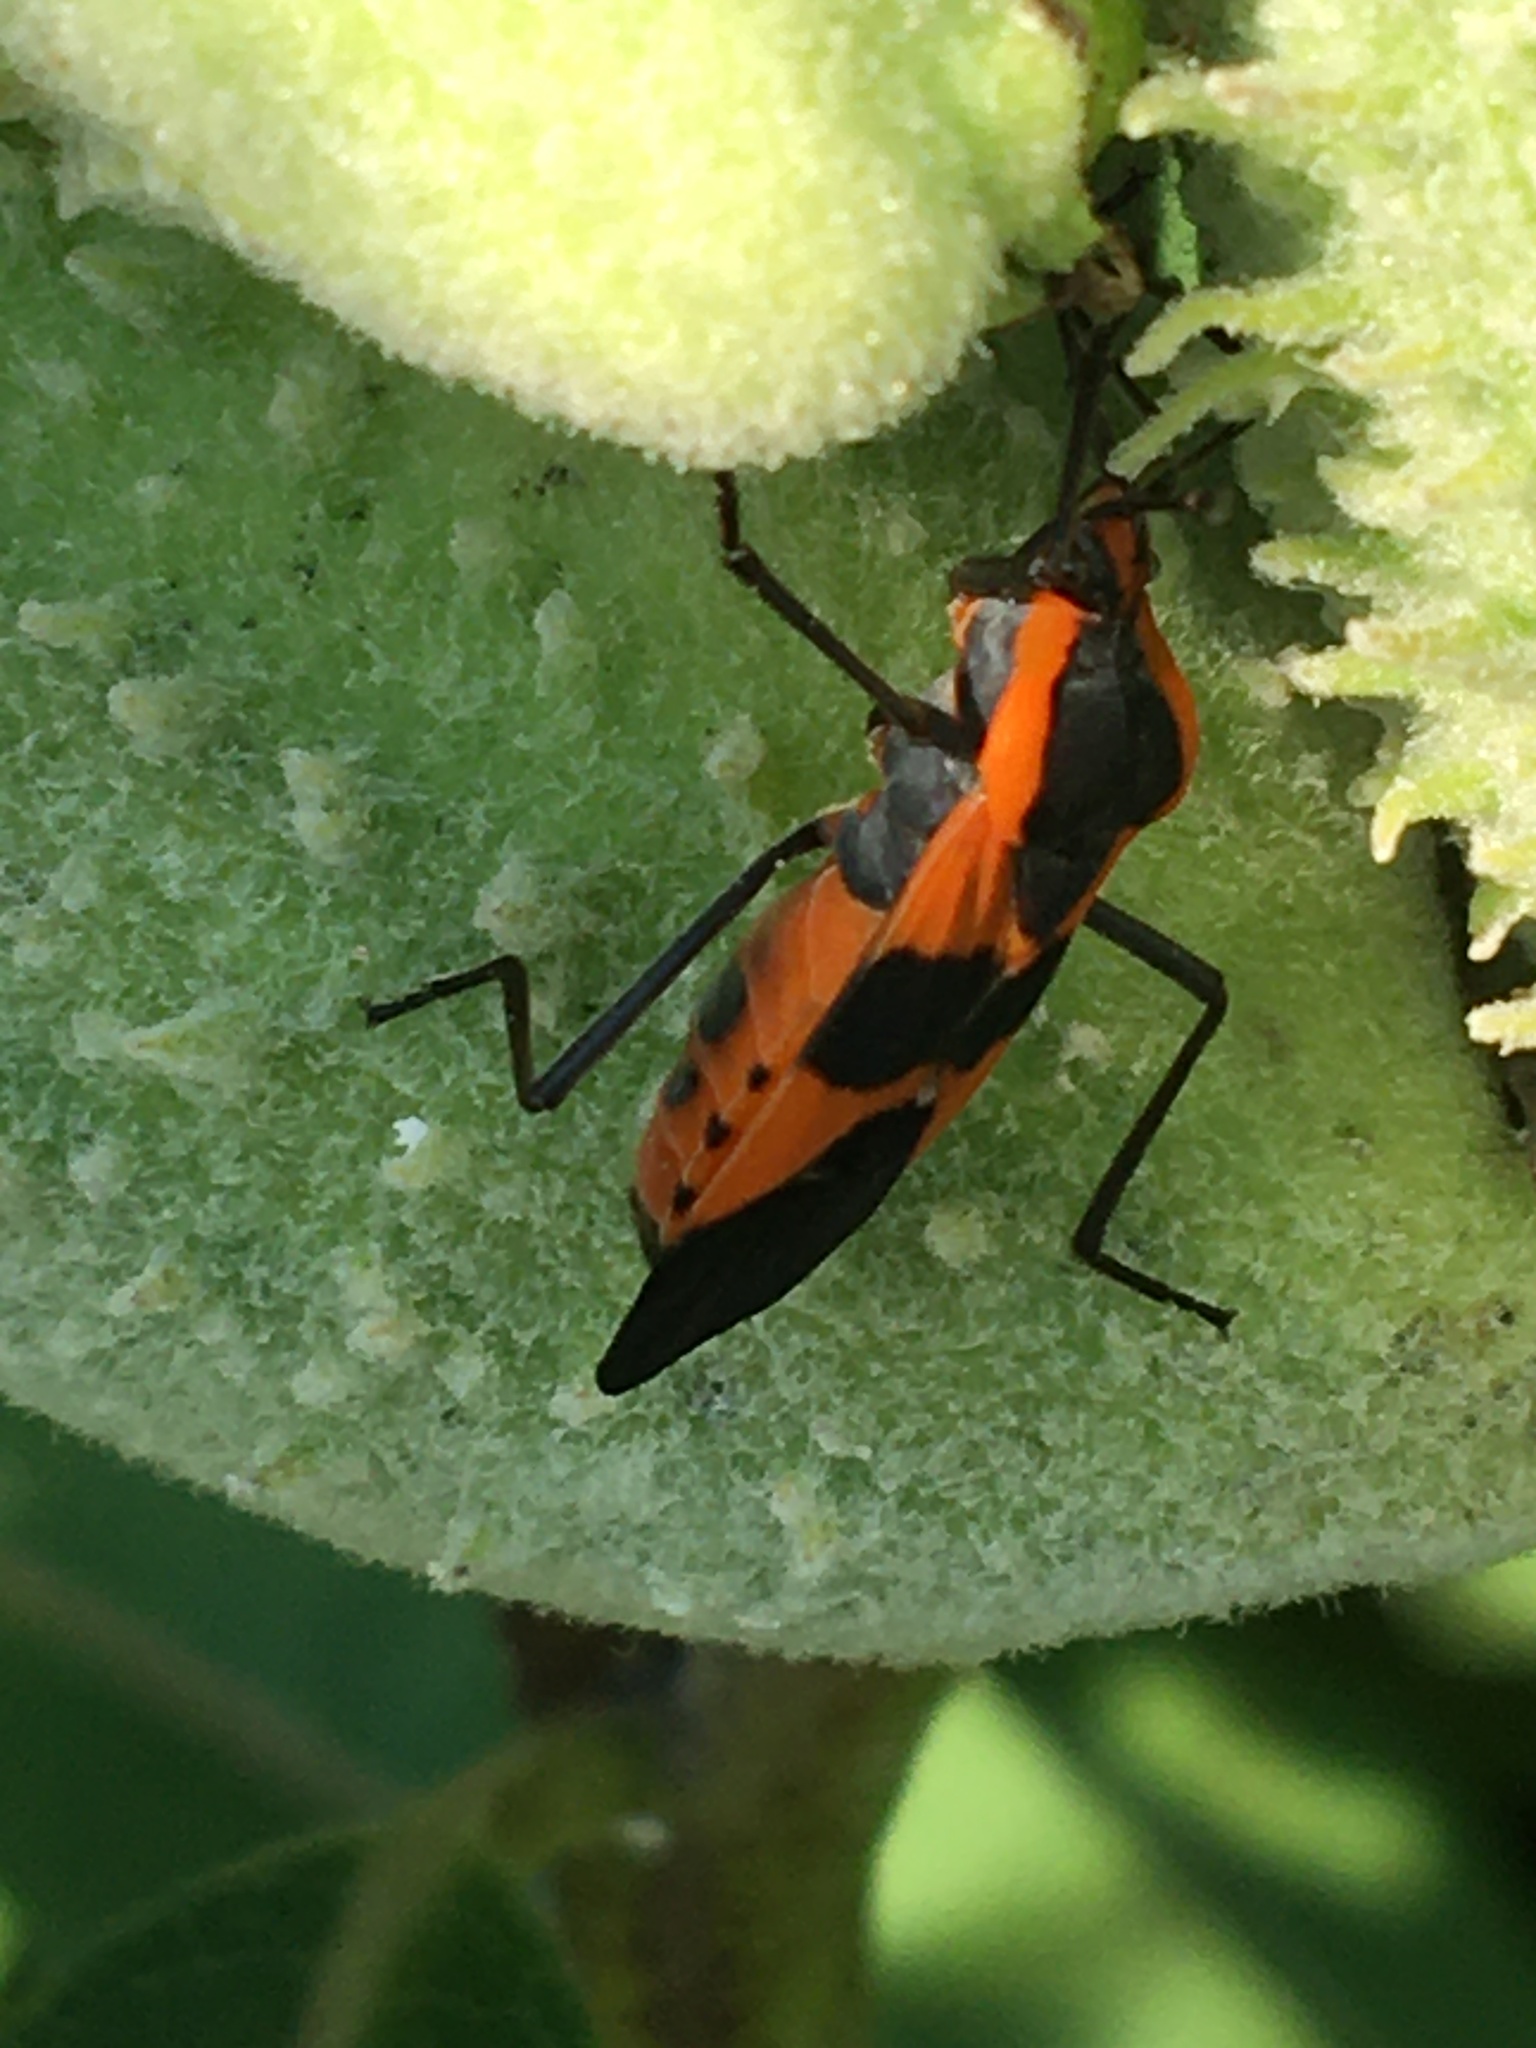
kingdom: Animalia
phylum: Arthropoda
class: Insecta
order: Hemiptera
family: Lygaeidae
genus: Oncopeltus
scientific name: Oncopeltus fasciatus
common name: Large milkweed bug
